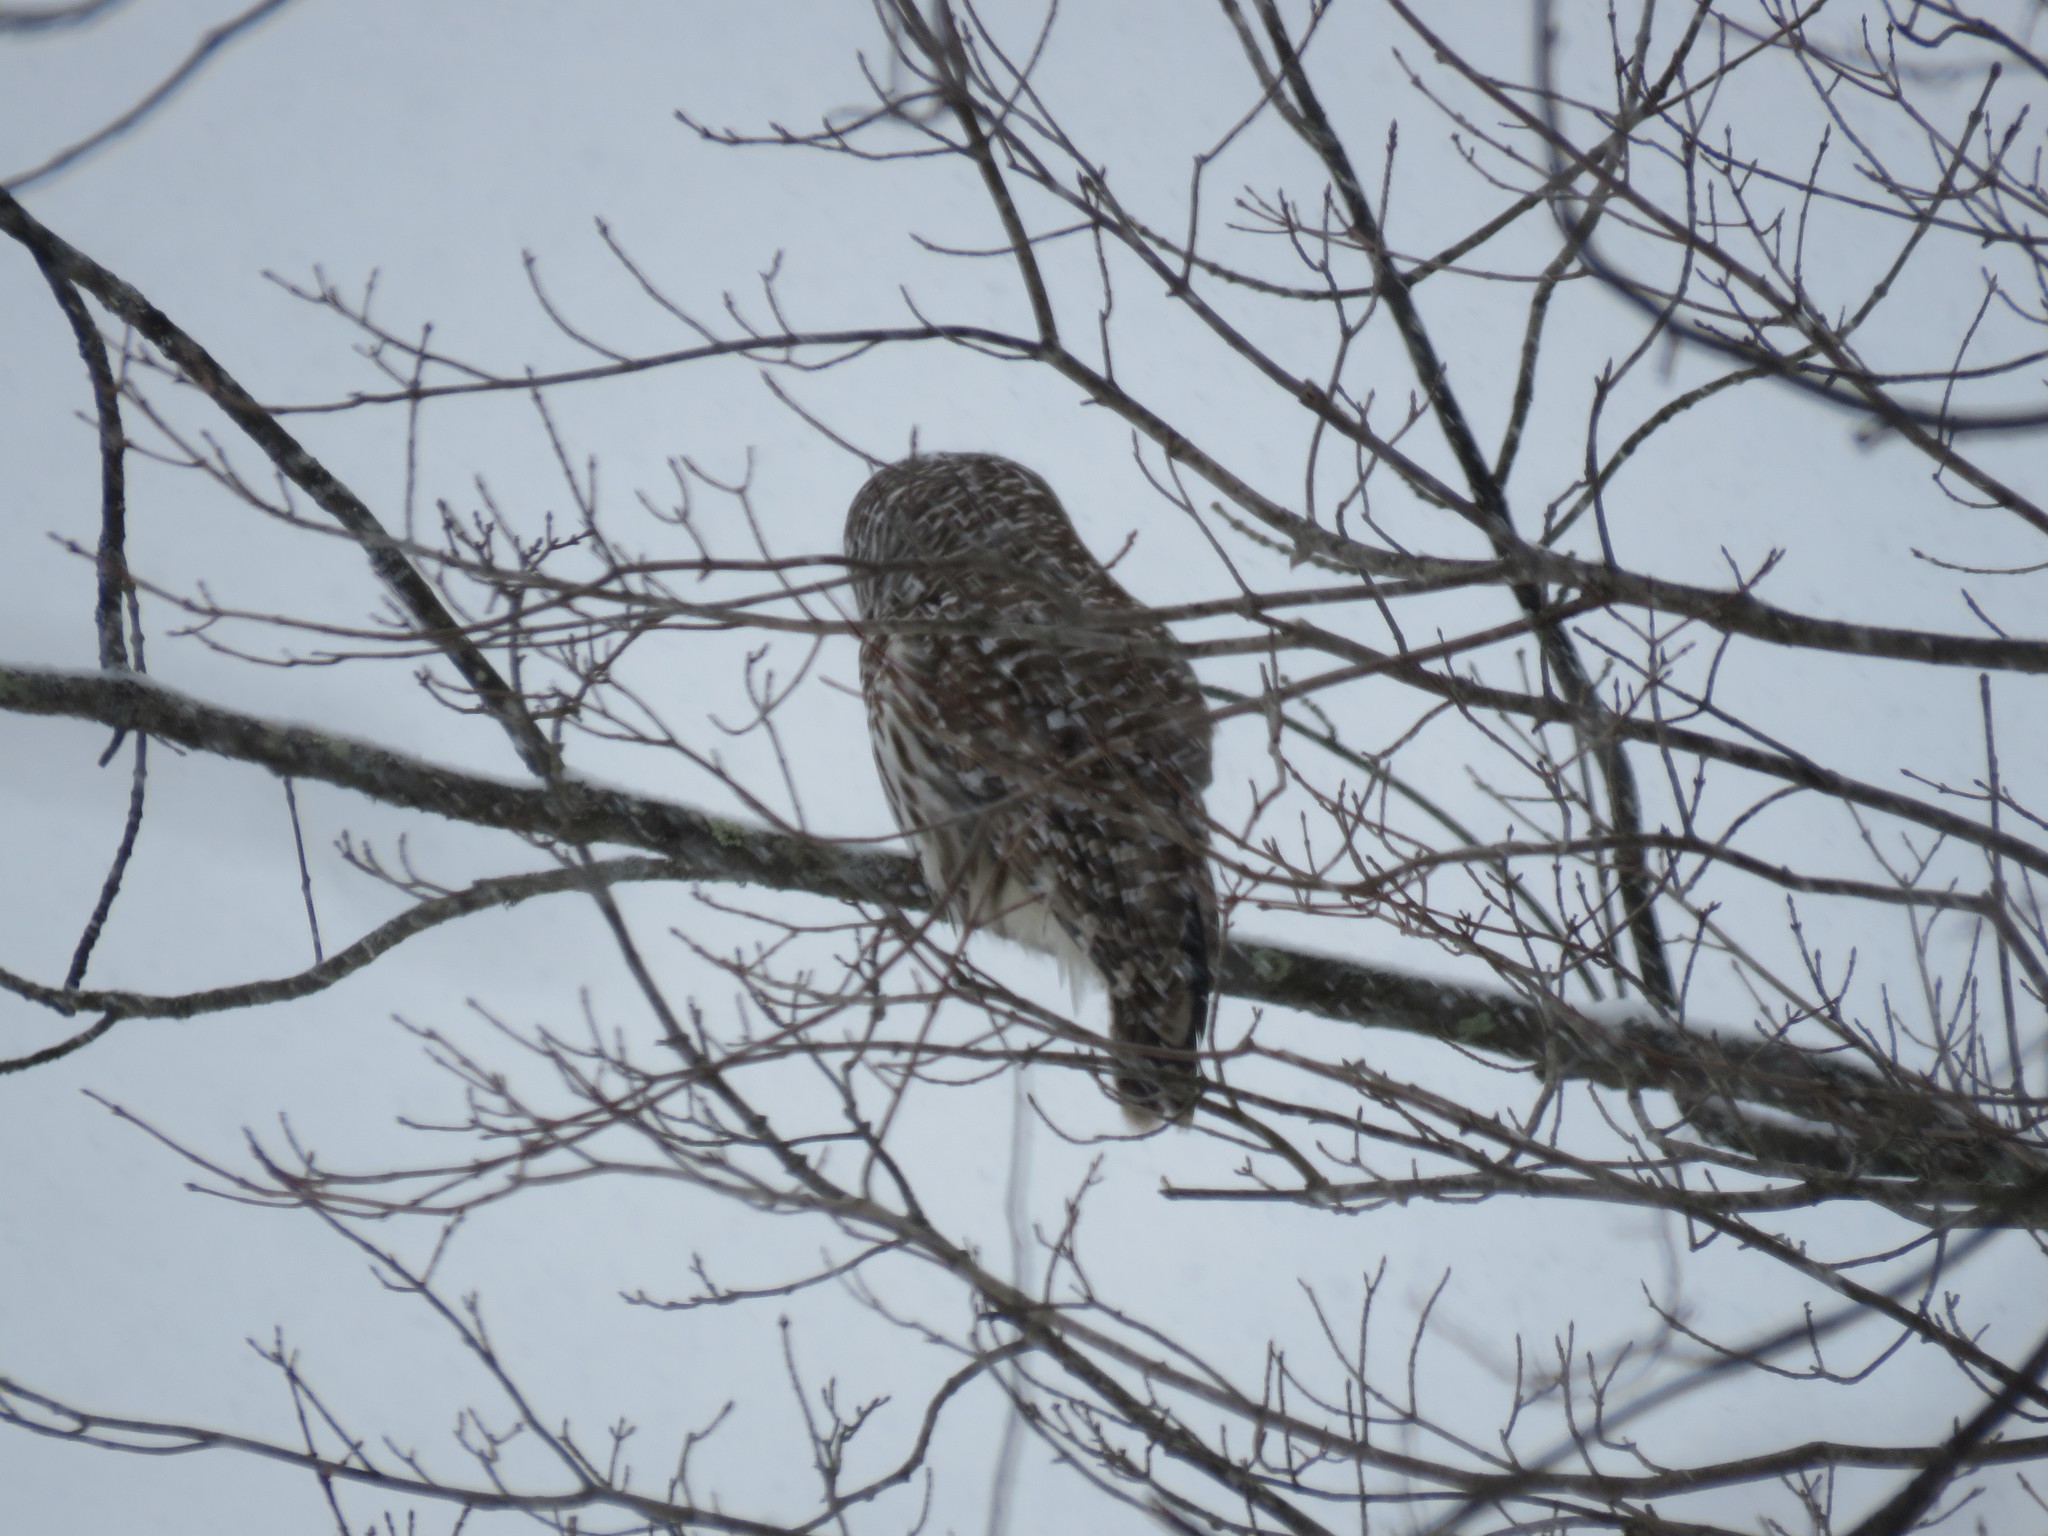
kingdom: Animalia
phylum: Chordata
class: Aves
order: Strigiformes
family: Strigidae
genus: Strix
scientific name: Strix varia
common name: Barred owl
